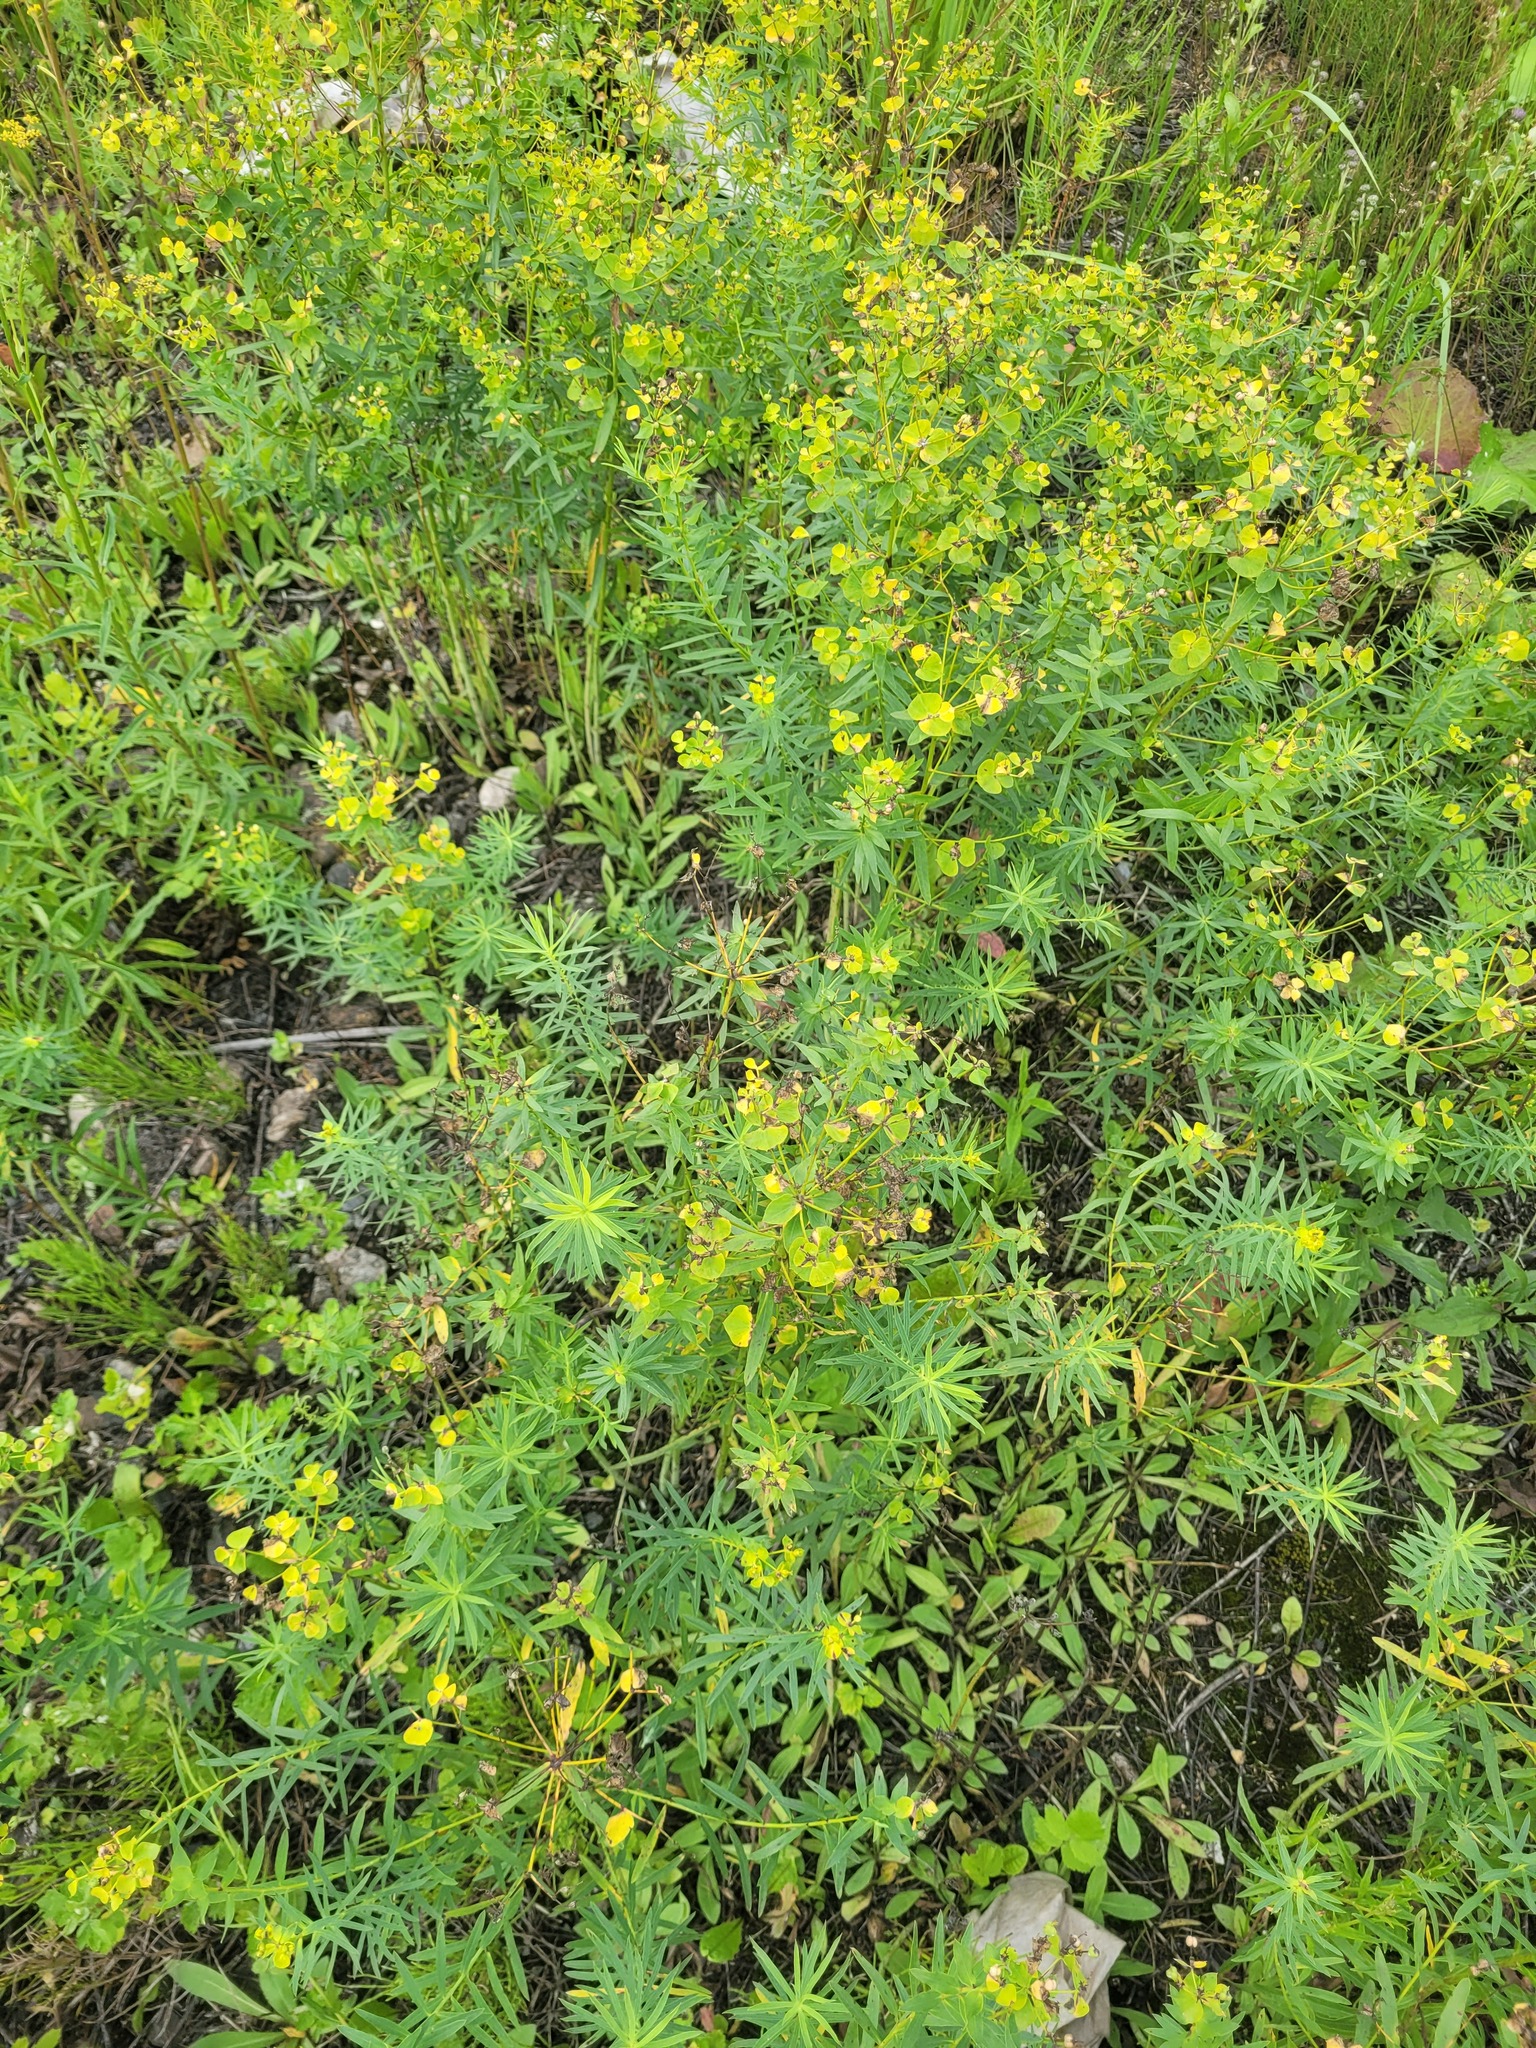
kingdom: Plantae
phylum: Tracheophyta
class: Magnoliopsida
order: Malpighiales
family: Euphorbiaceae
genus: Euphorbia
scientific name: Euphorbia virgata
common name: Leafy spurge
